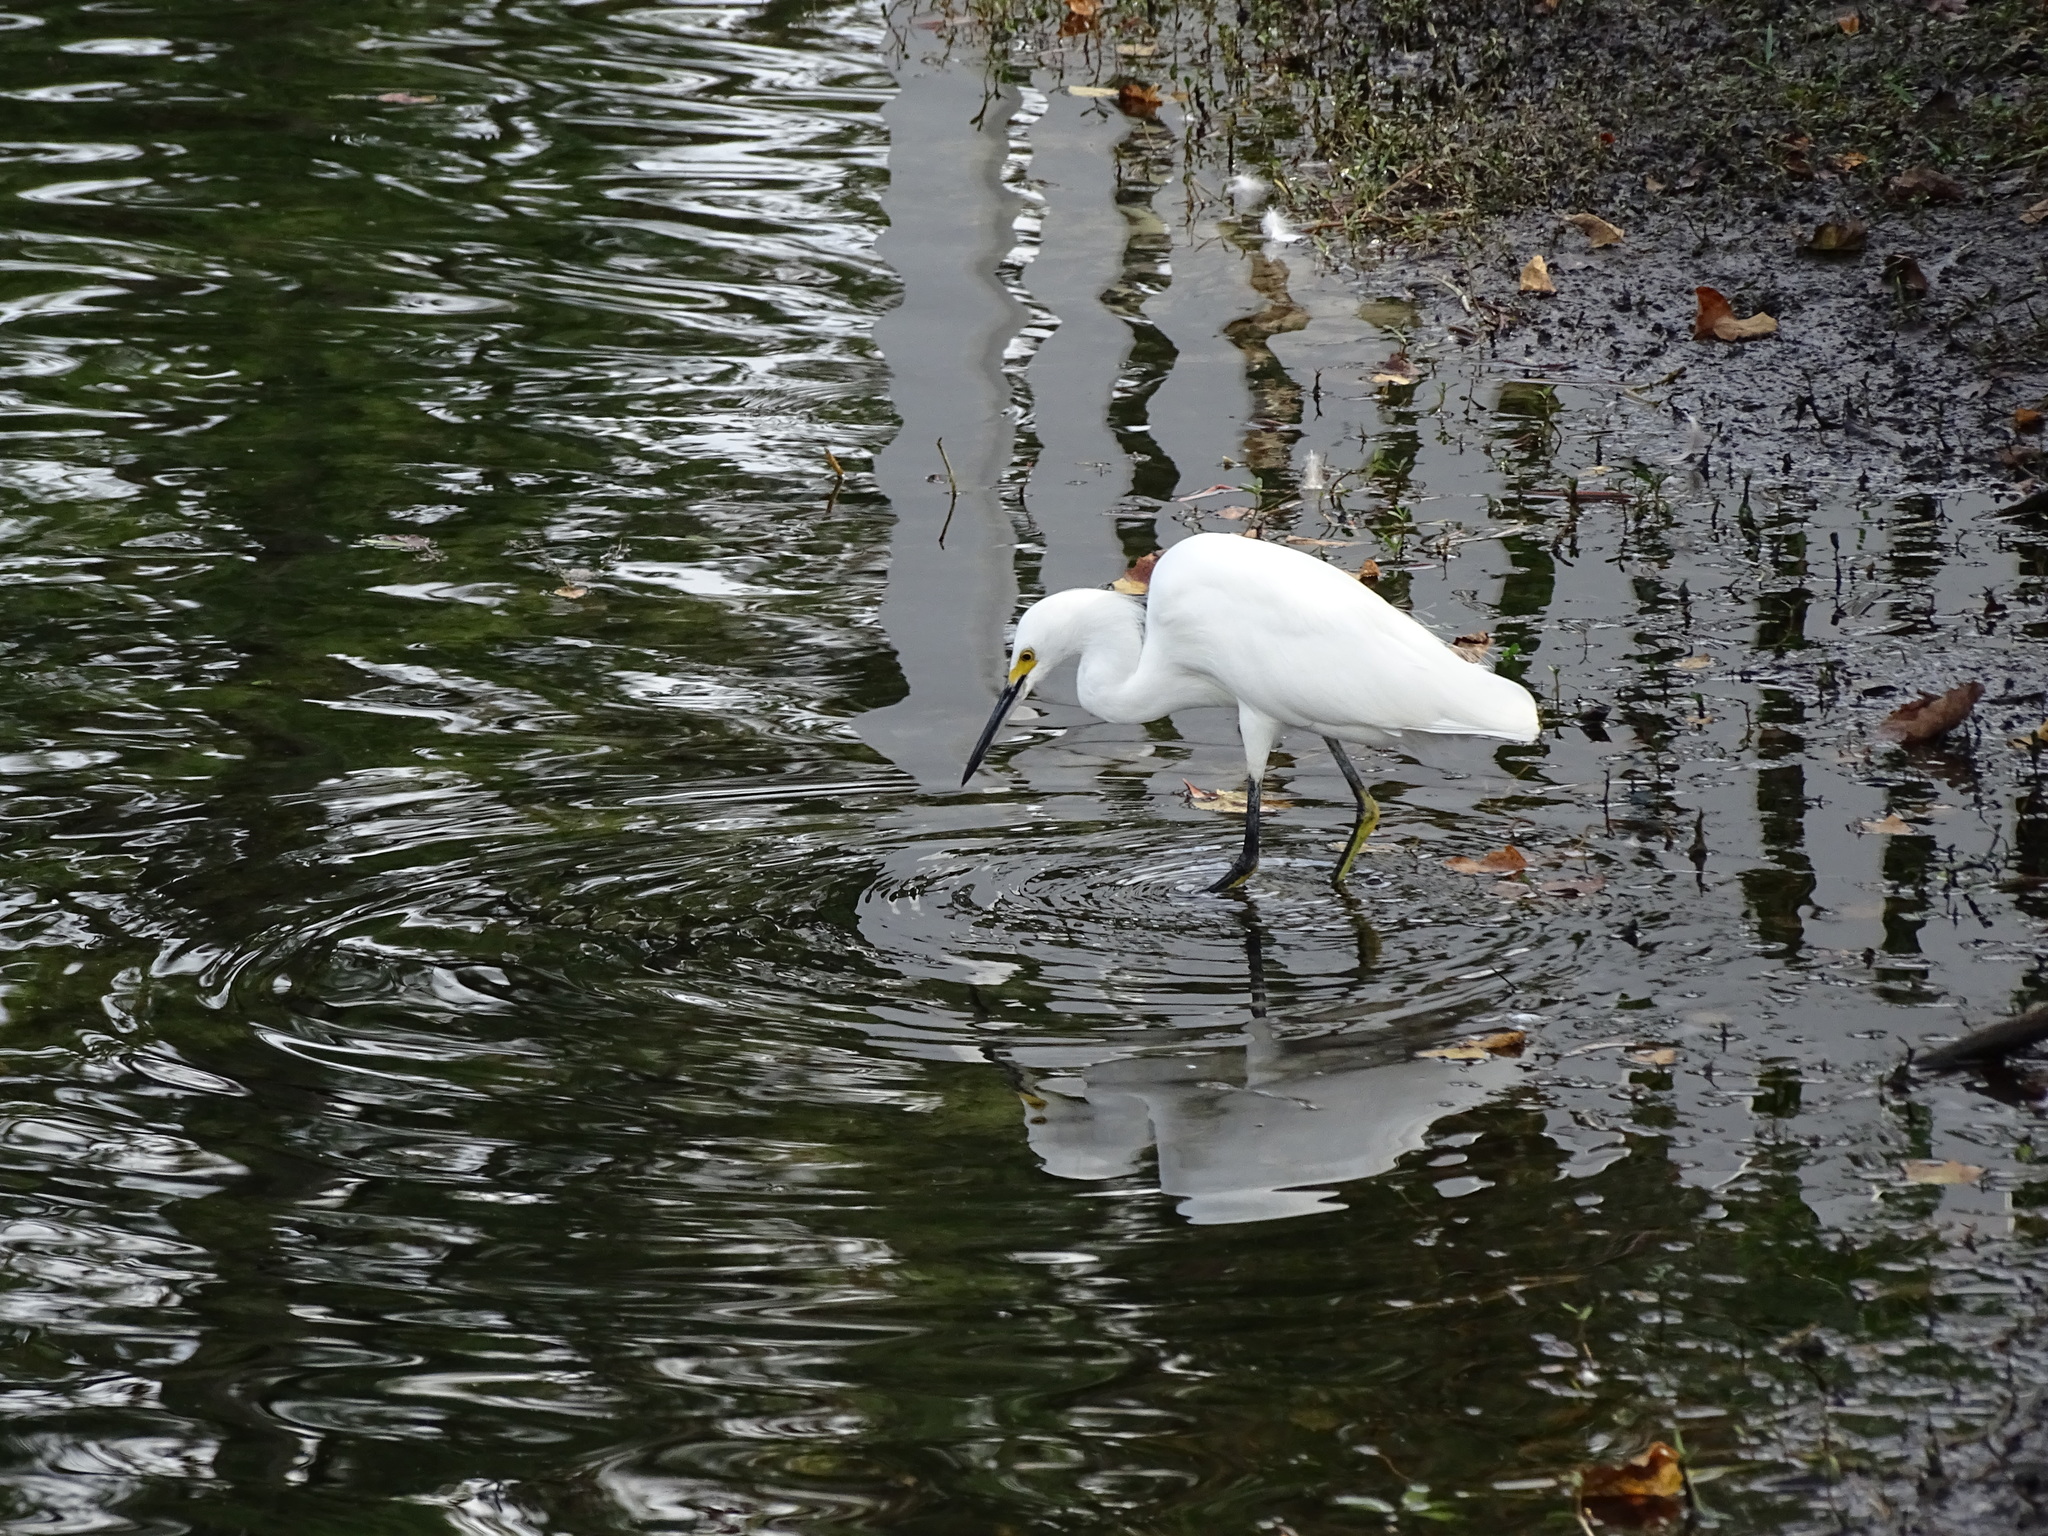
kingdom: Animalia
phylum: Chordata
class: Aves
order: Pelecaniformes
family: Ardeidae
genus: Egretta
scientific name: Egretta thula
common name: Snowy egret
